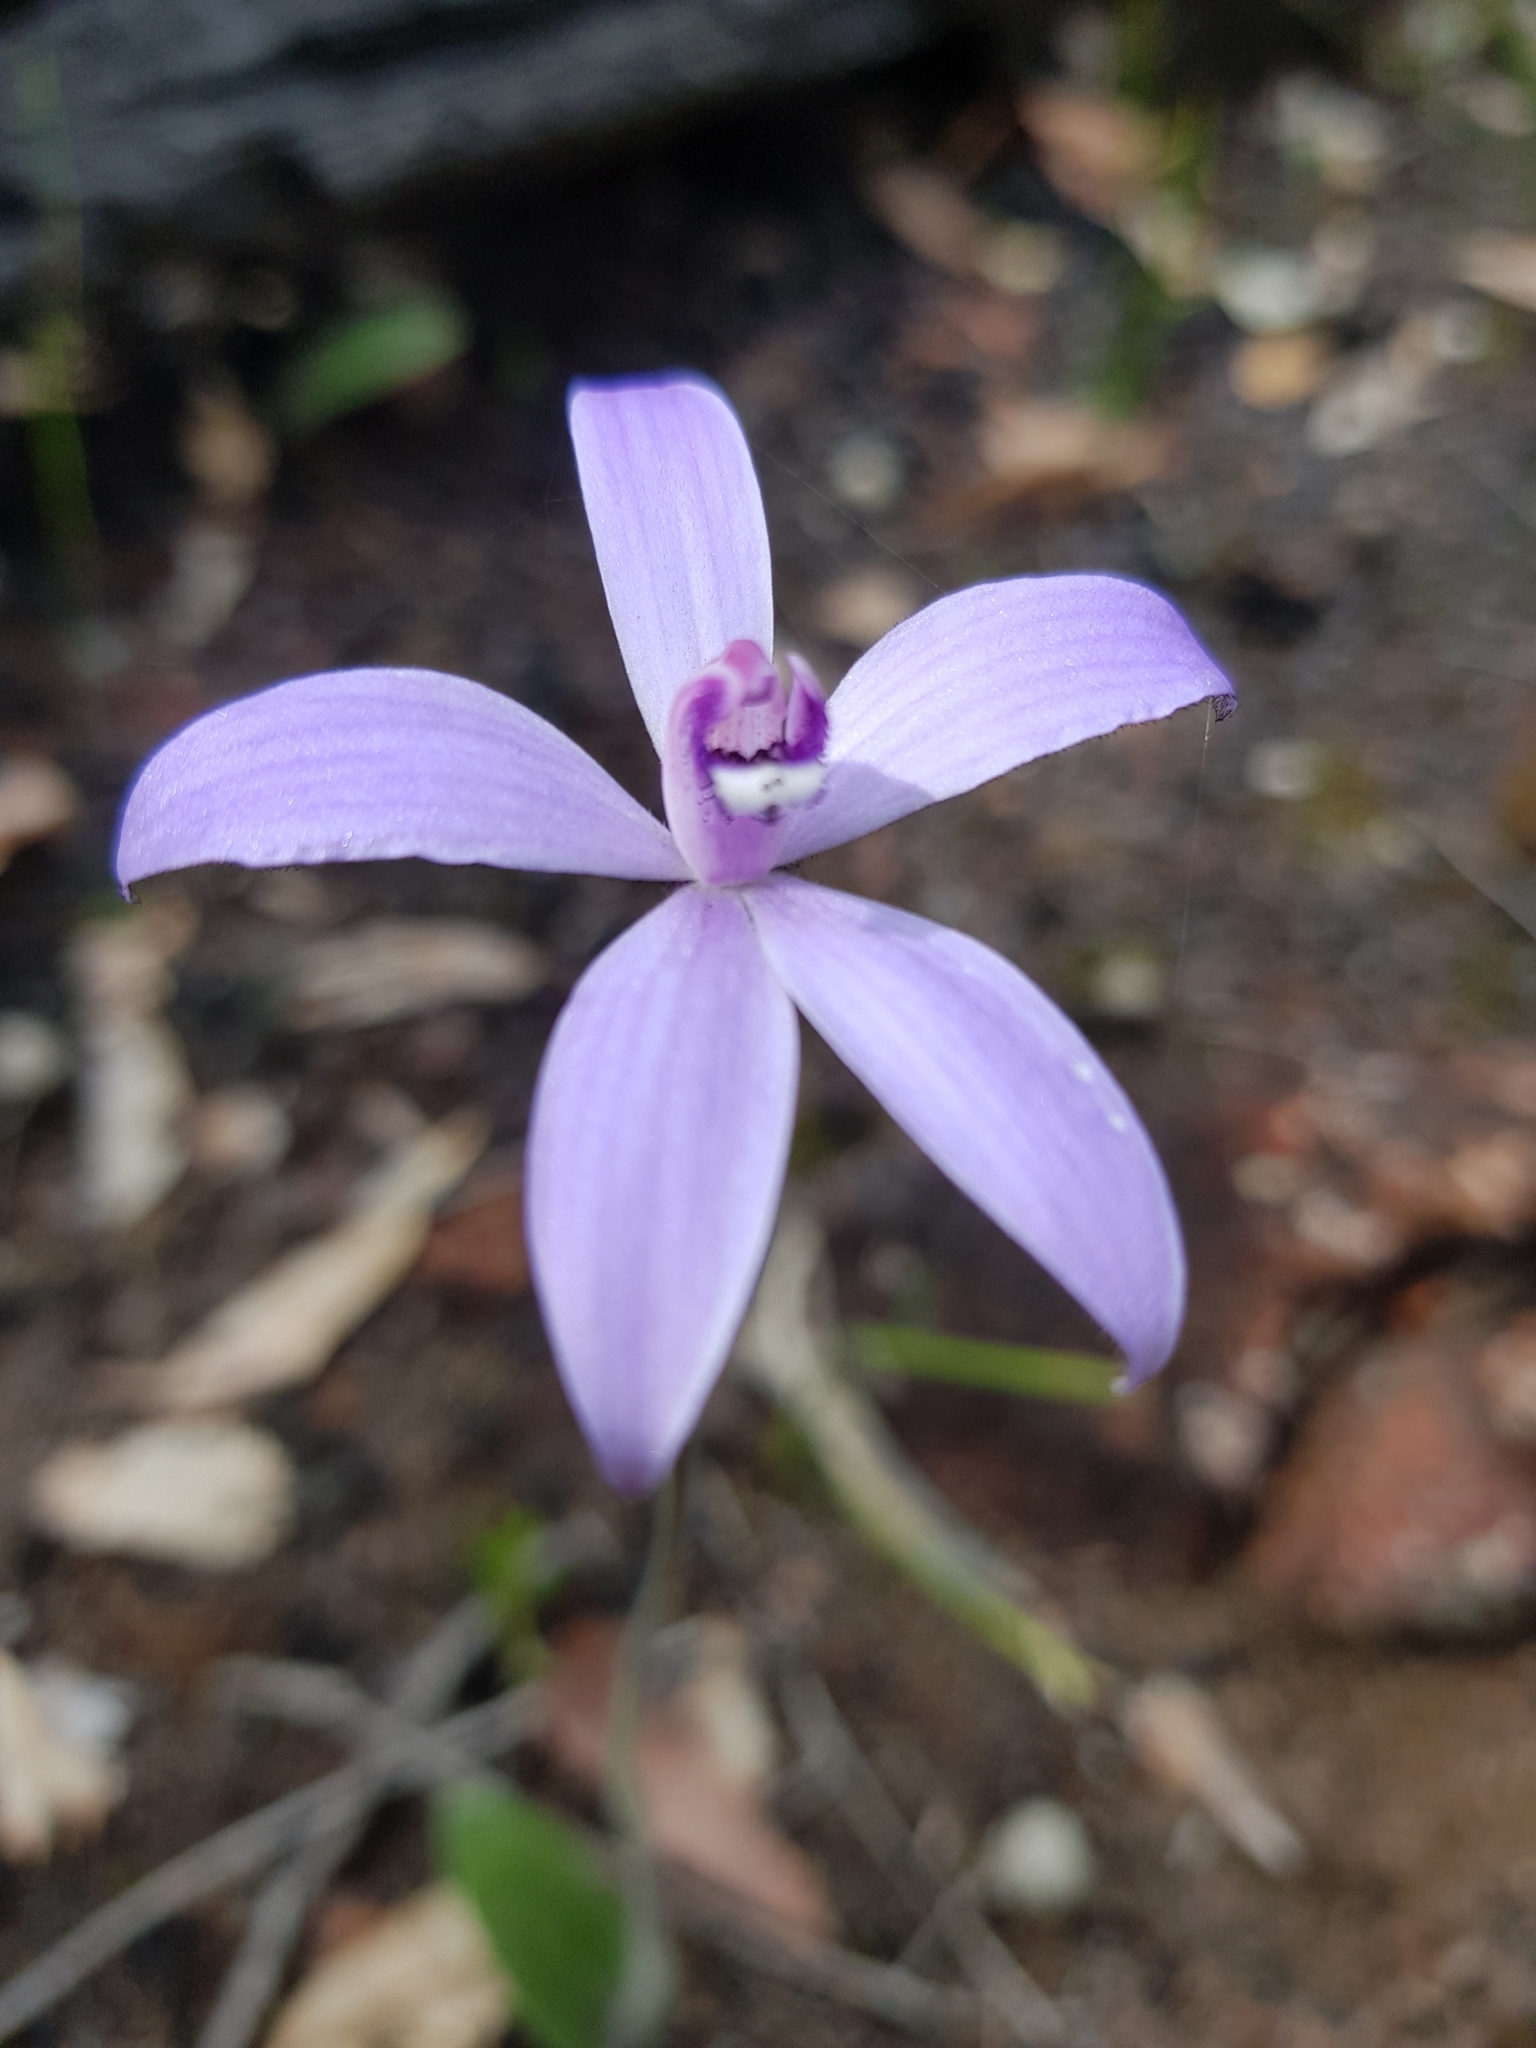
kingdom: Plantae
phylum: Tracheophyta
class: Liliopsida
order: Asparagales
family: Orchidaceae
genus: Caladenia
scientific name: Caladenia sericea
